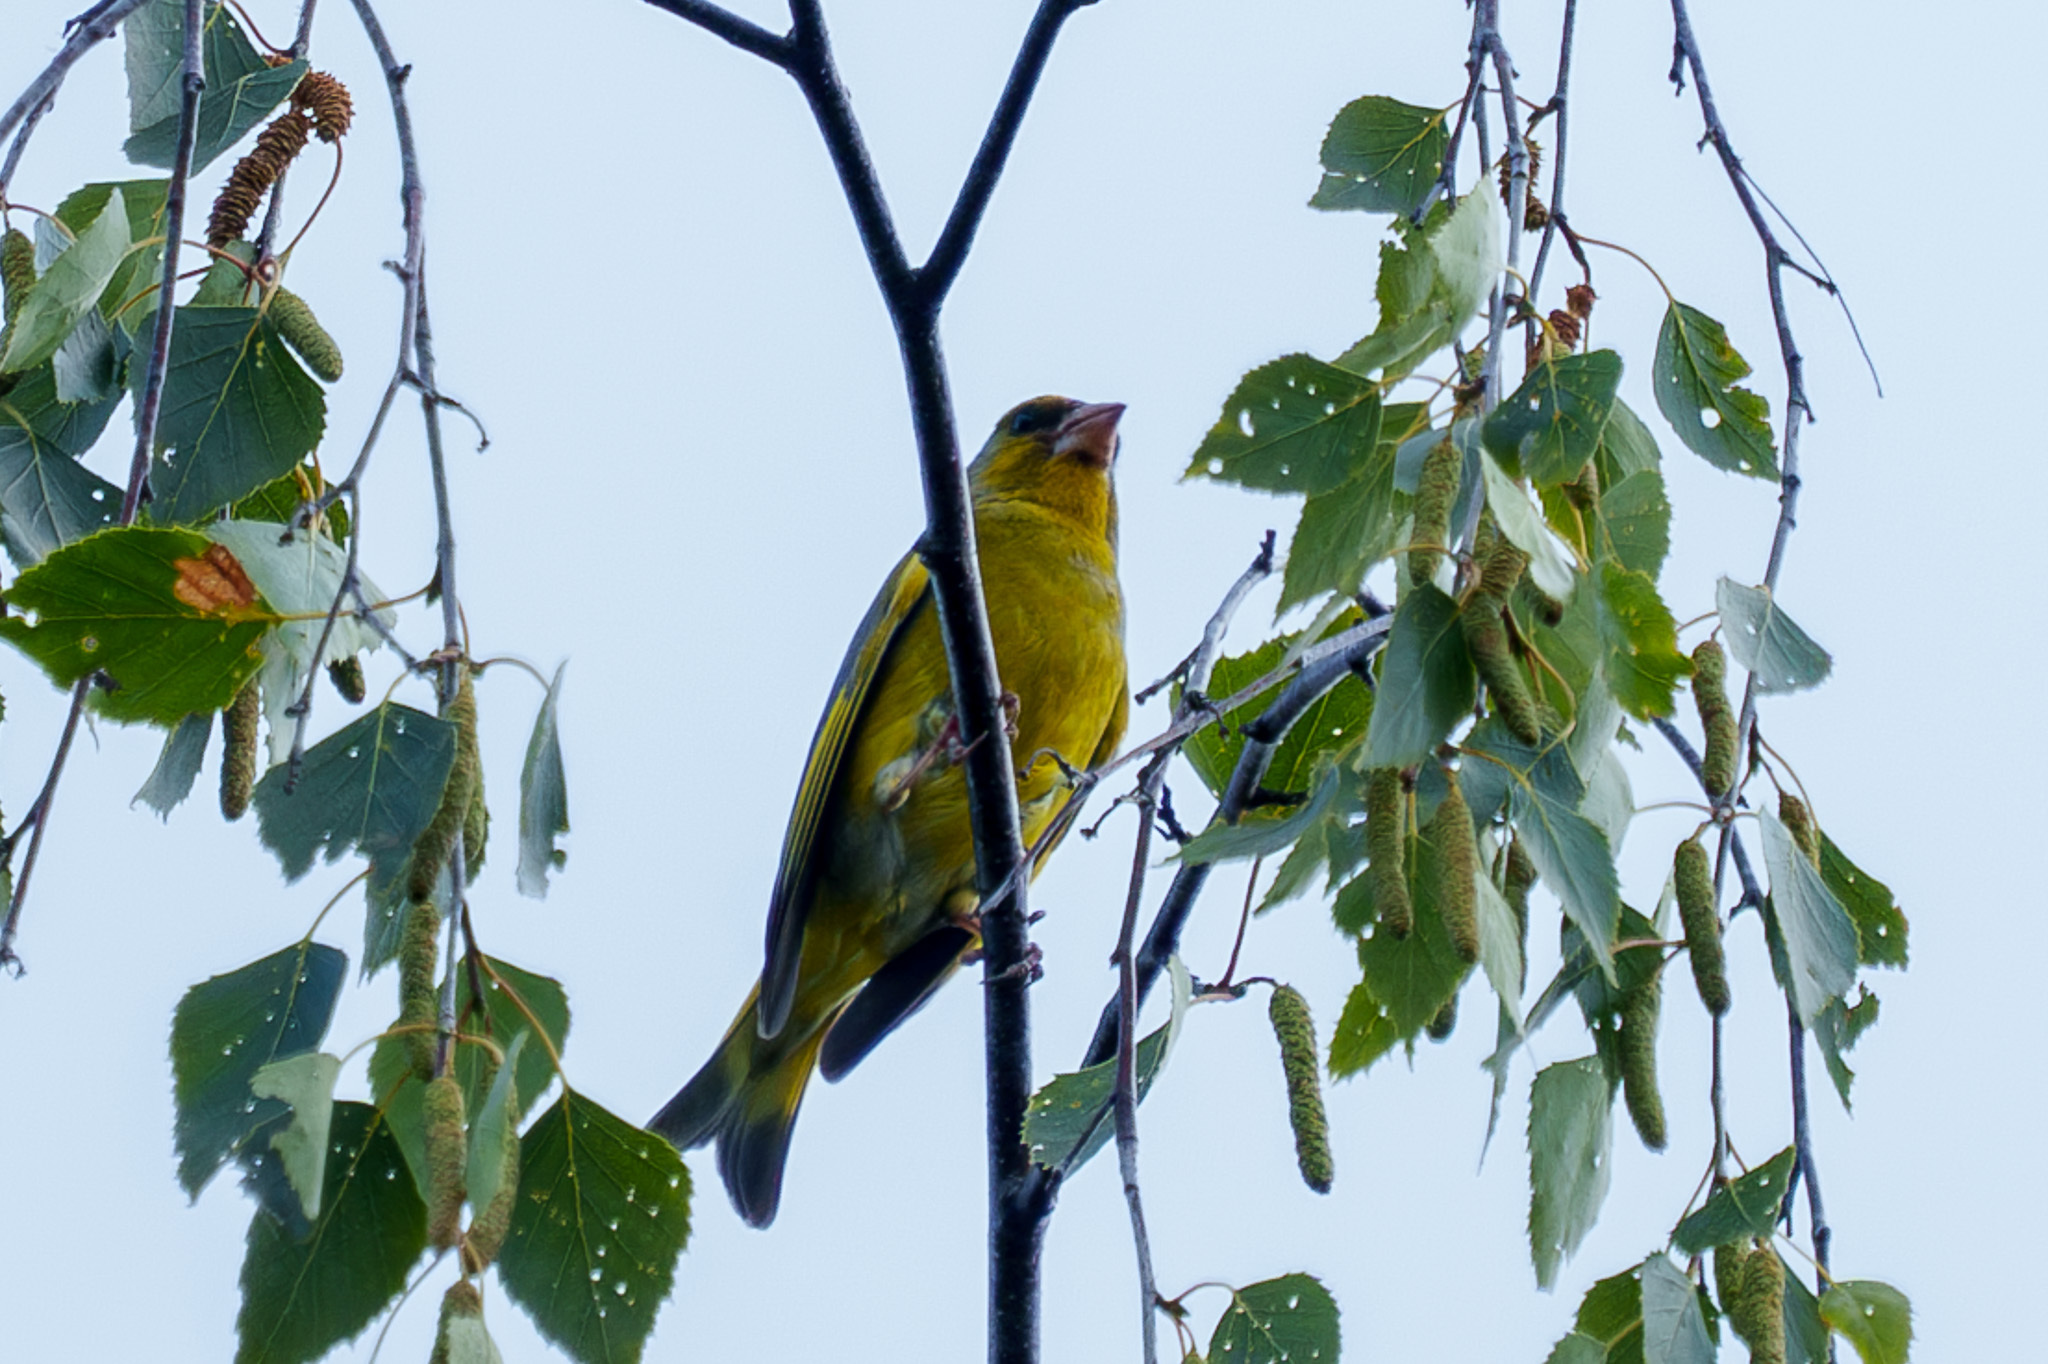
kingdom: Plantae
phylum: Tracheophyta
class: Liliopsida
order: Poales
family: Poaceae
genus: Chloris
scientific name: Chloris chloris
